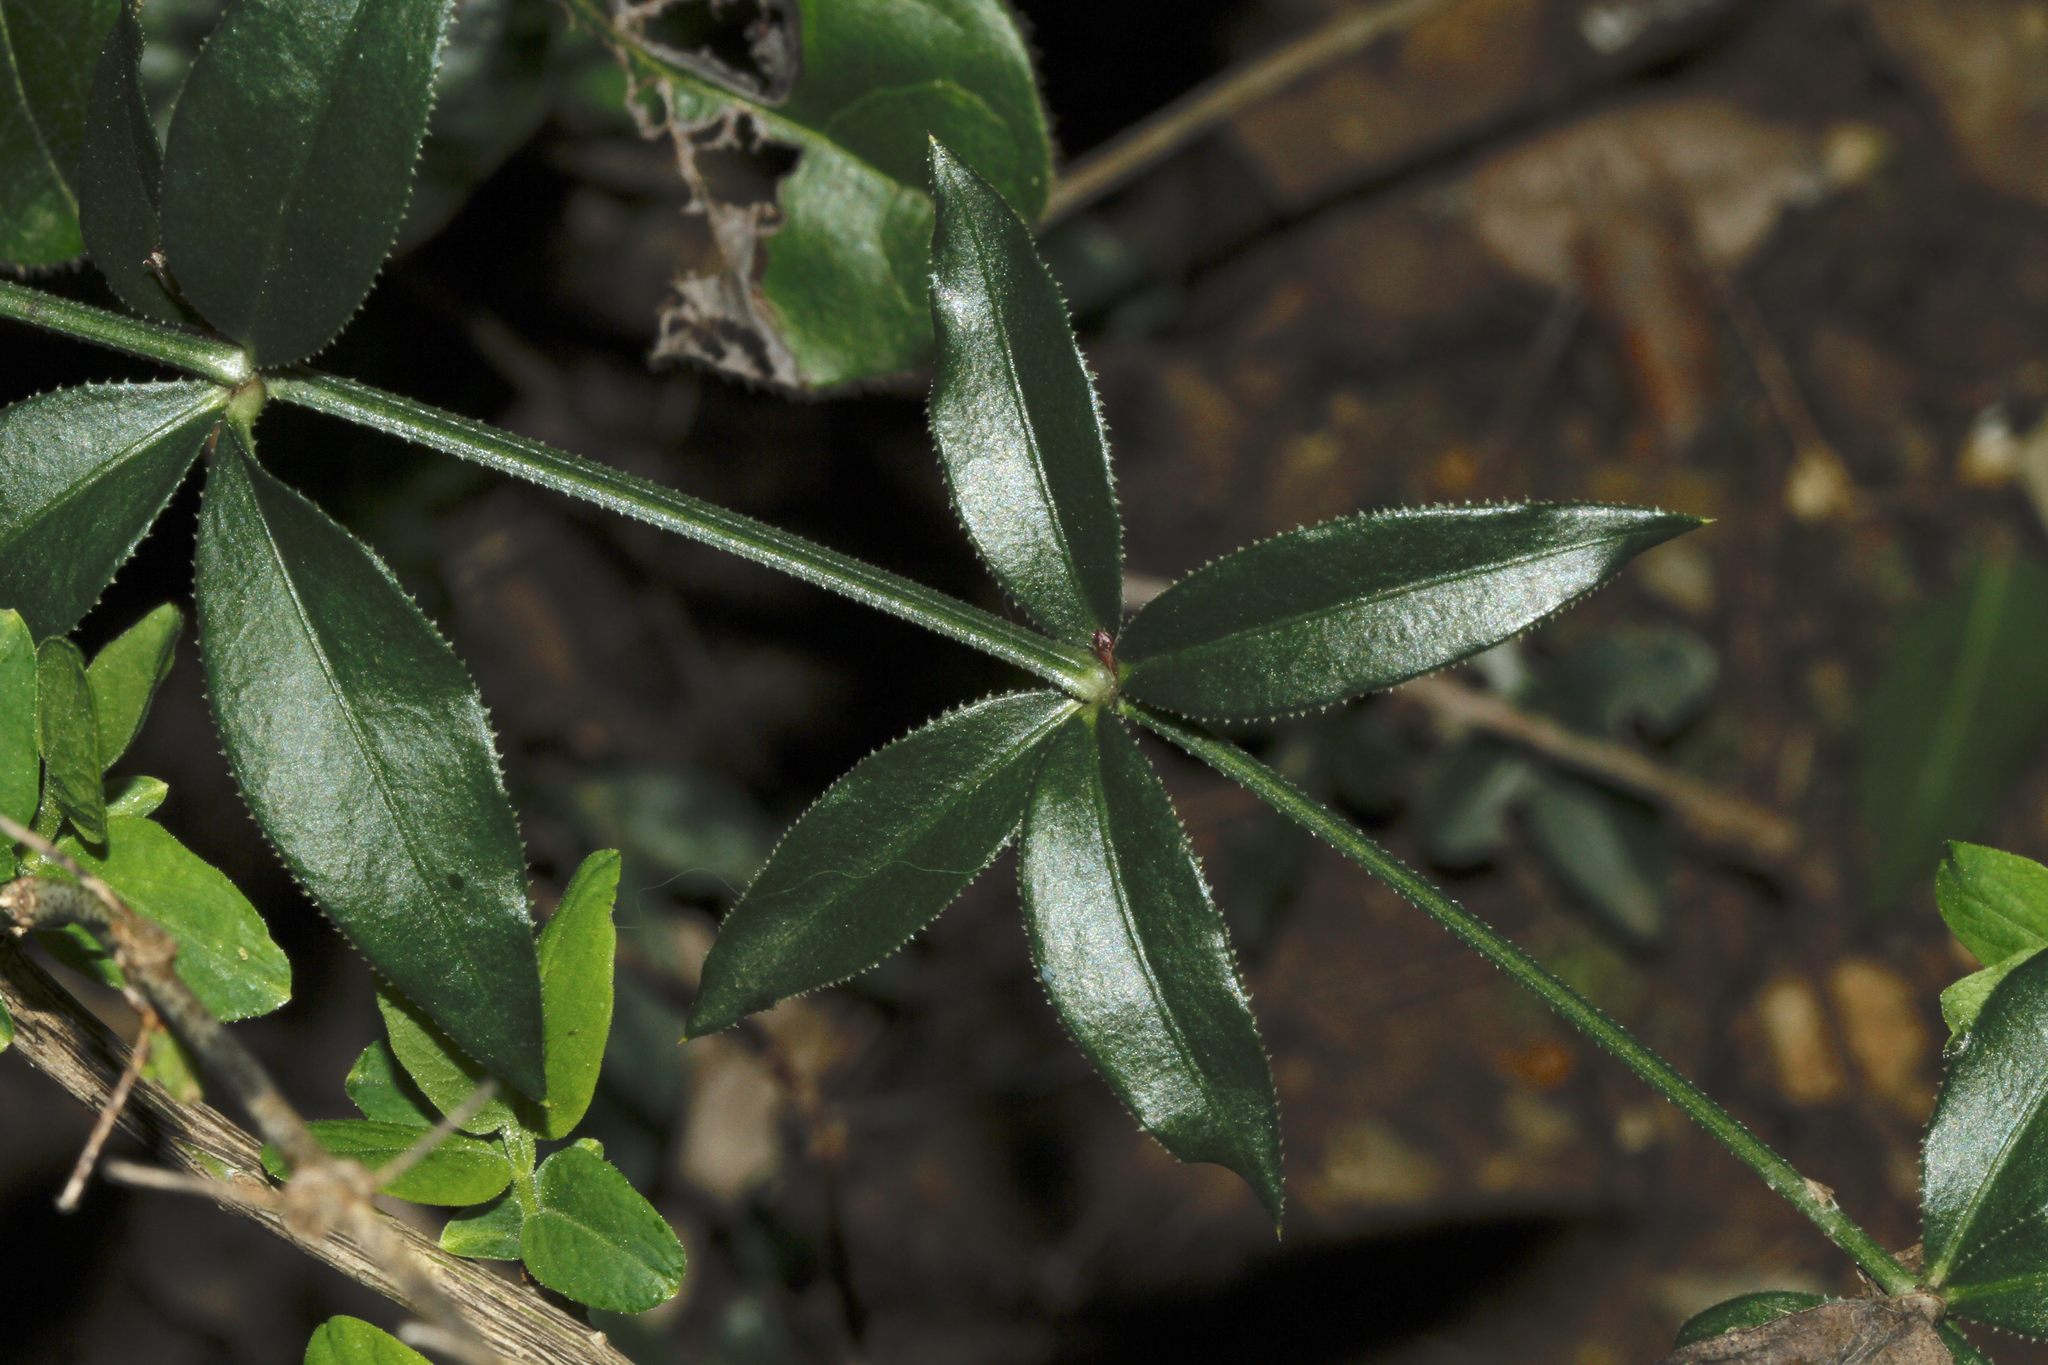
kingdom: Plantae
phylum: Tracheophyta
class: Magnoliopsida
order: Gentianales
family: Rubiaceae
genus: Rubia
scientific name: Rubia peregrina
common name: Wild madder
